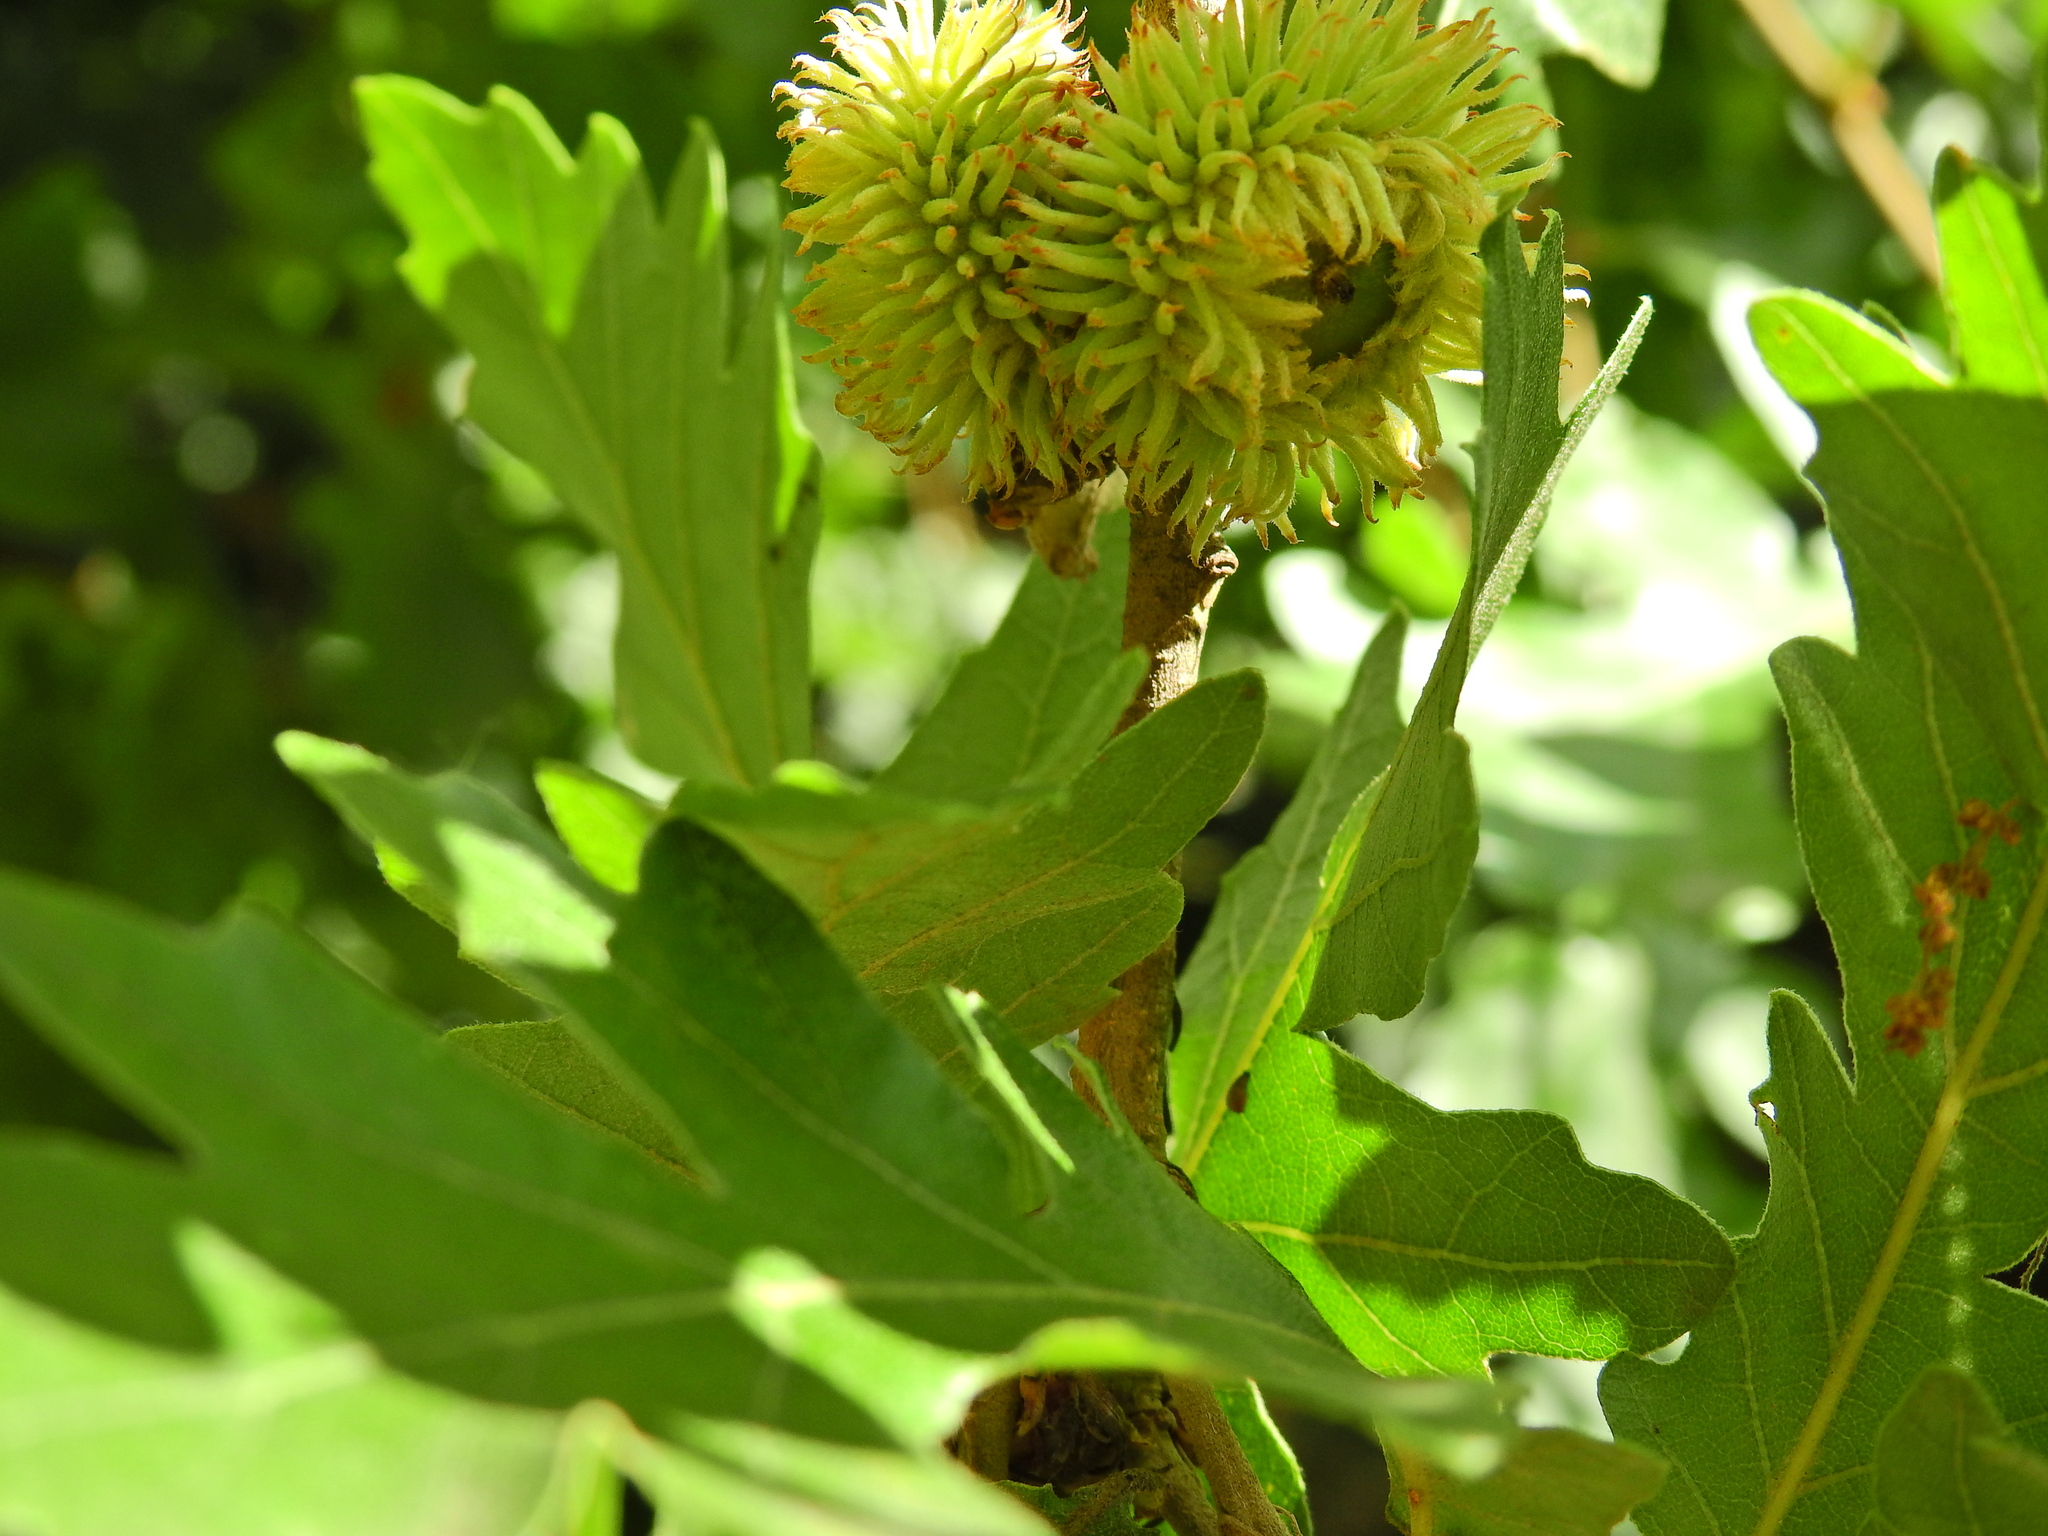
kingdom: Plantae
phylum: Tracheophyta
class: Magnoliopsida
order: Fagales
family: Fagaceae
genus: Quercus
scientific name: Quercus cerris
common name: Turkey oak
